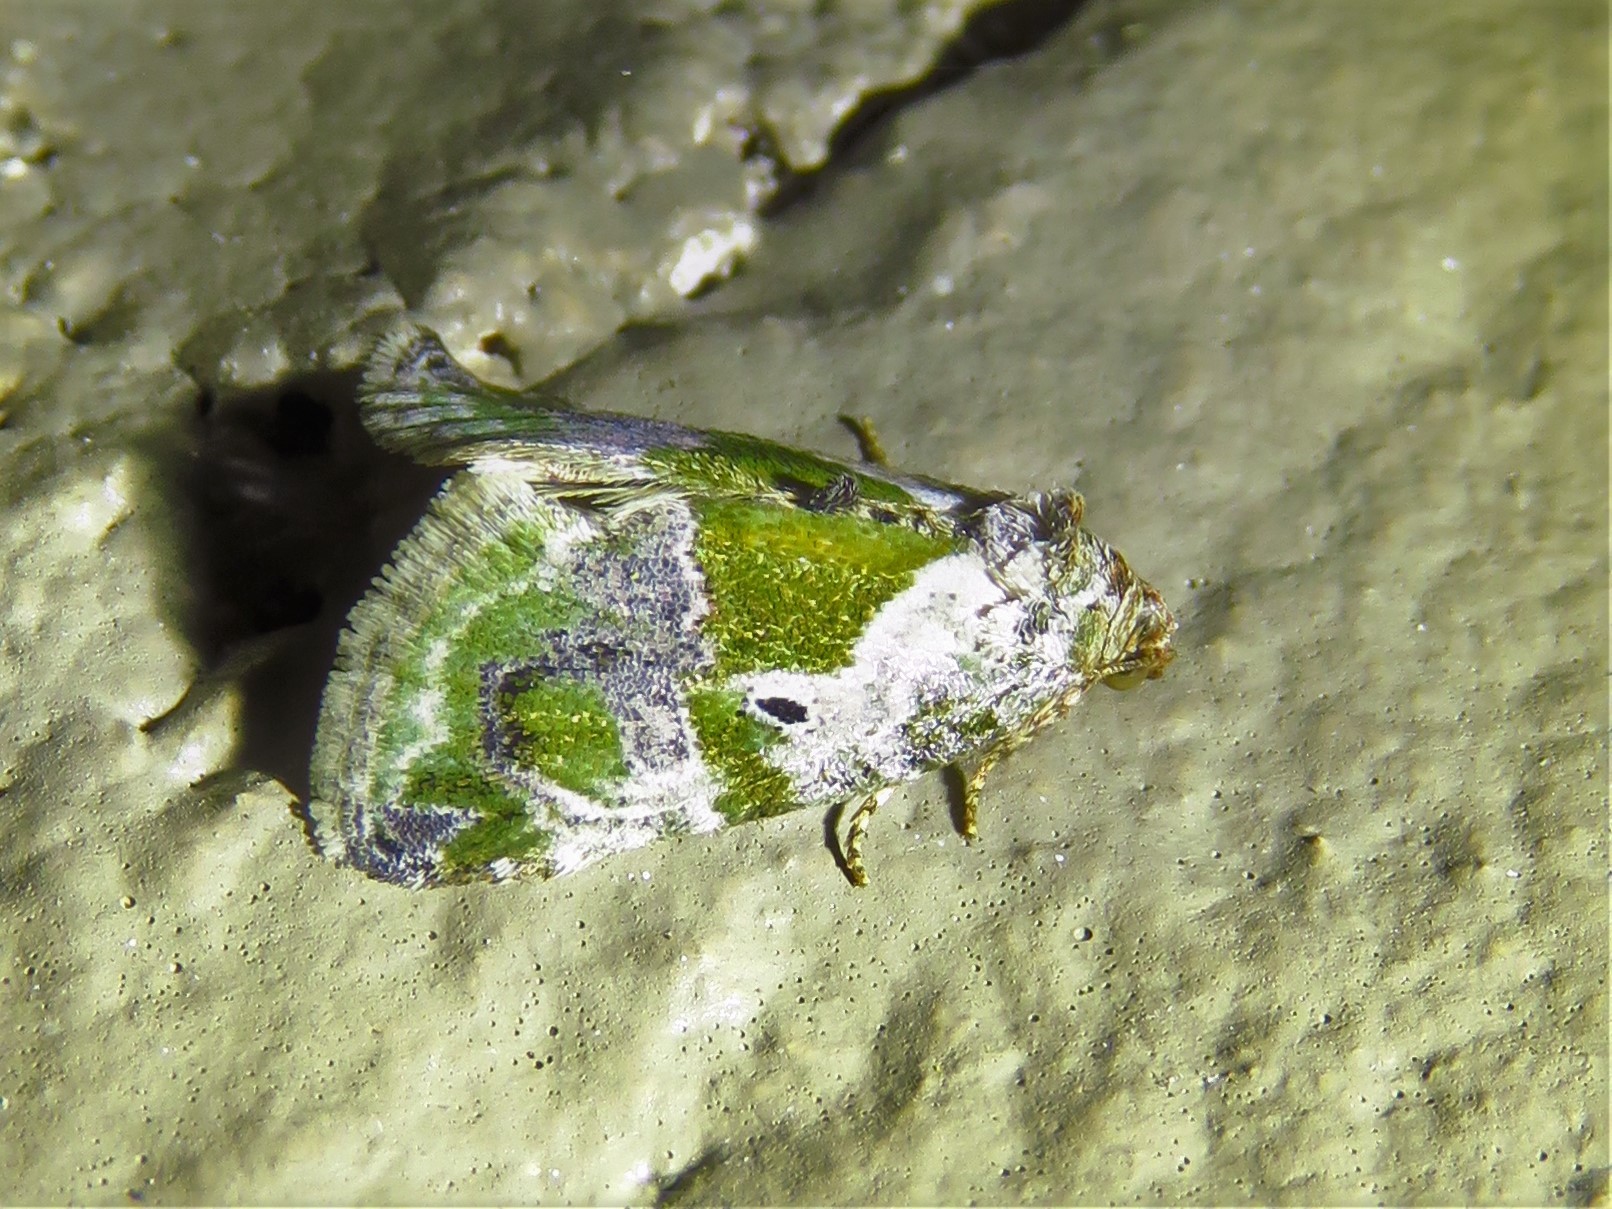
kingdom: Animalia
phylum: Arthropoda
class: Insecta
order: Lepidoptera
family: Noctuidae
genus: Maliattha
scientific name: Maliattha synochitis
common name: Black-dotted glyph
